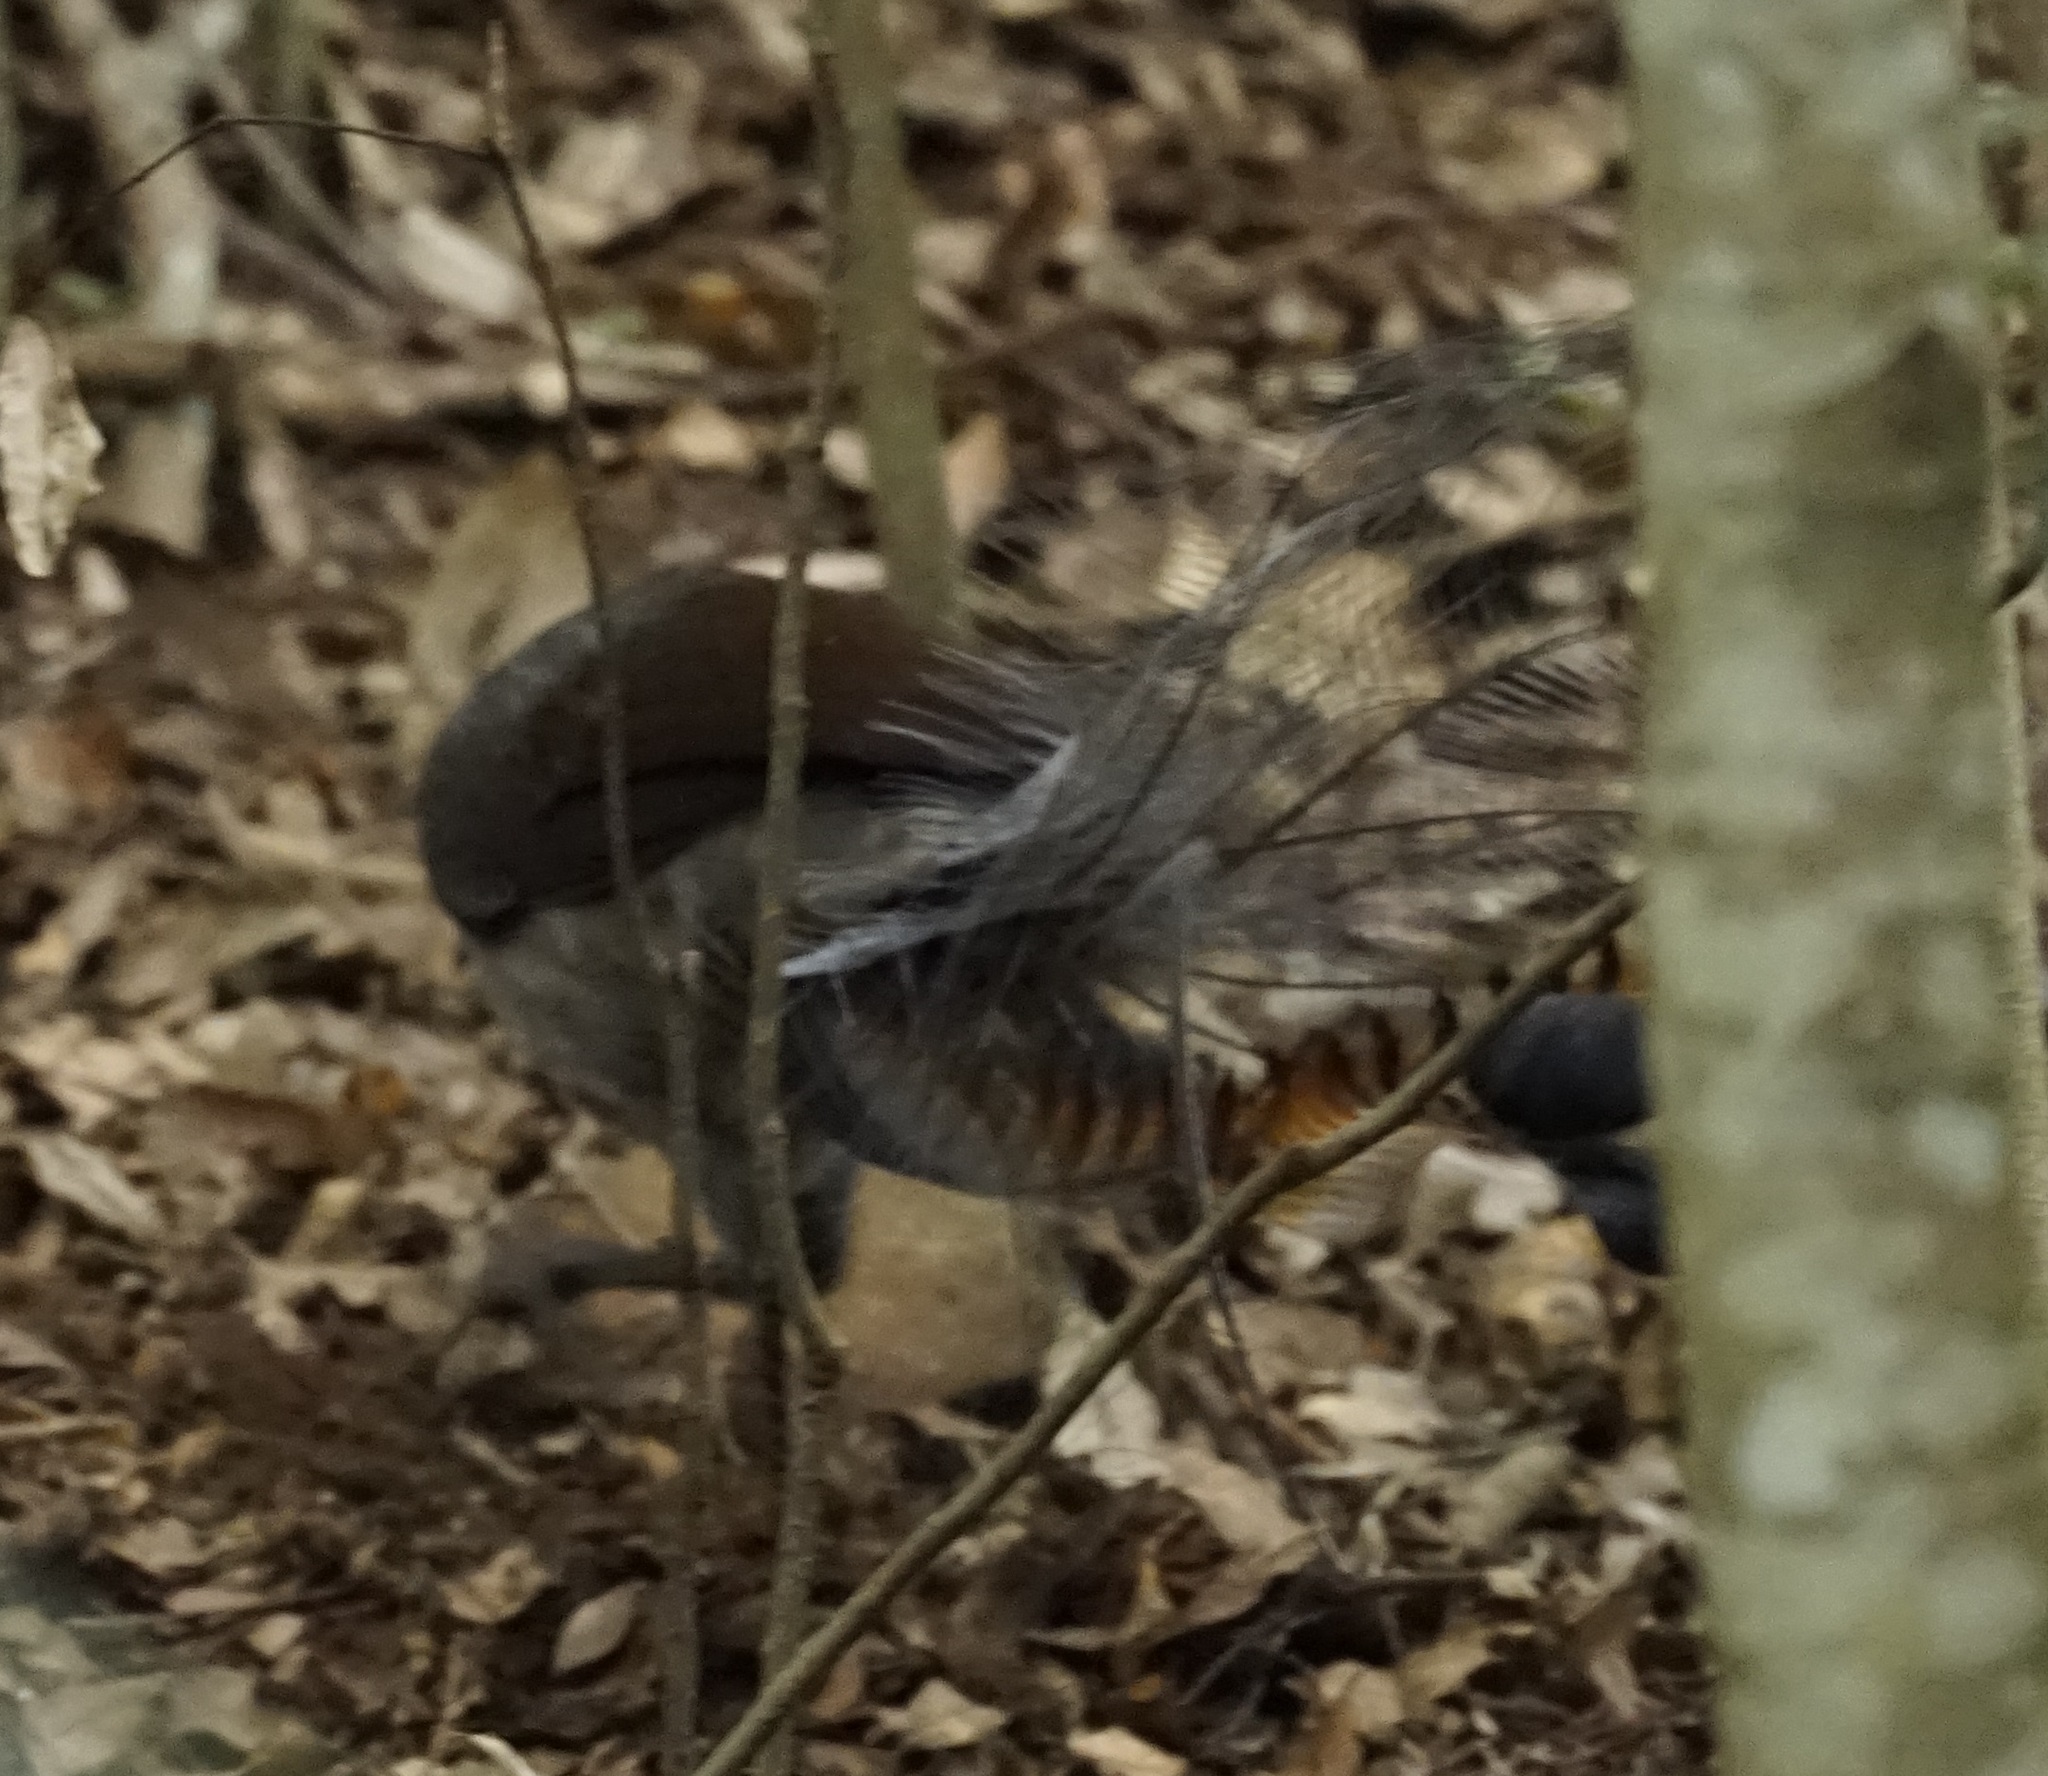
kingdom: Animalia
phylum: Chordata
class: Aves
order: Passeriformes
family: Menuridae
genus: Menura
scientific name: Menura novaehollandiae
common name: Superb lyrebird
